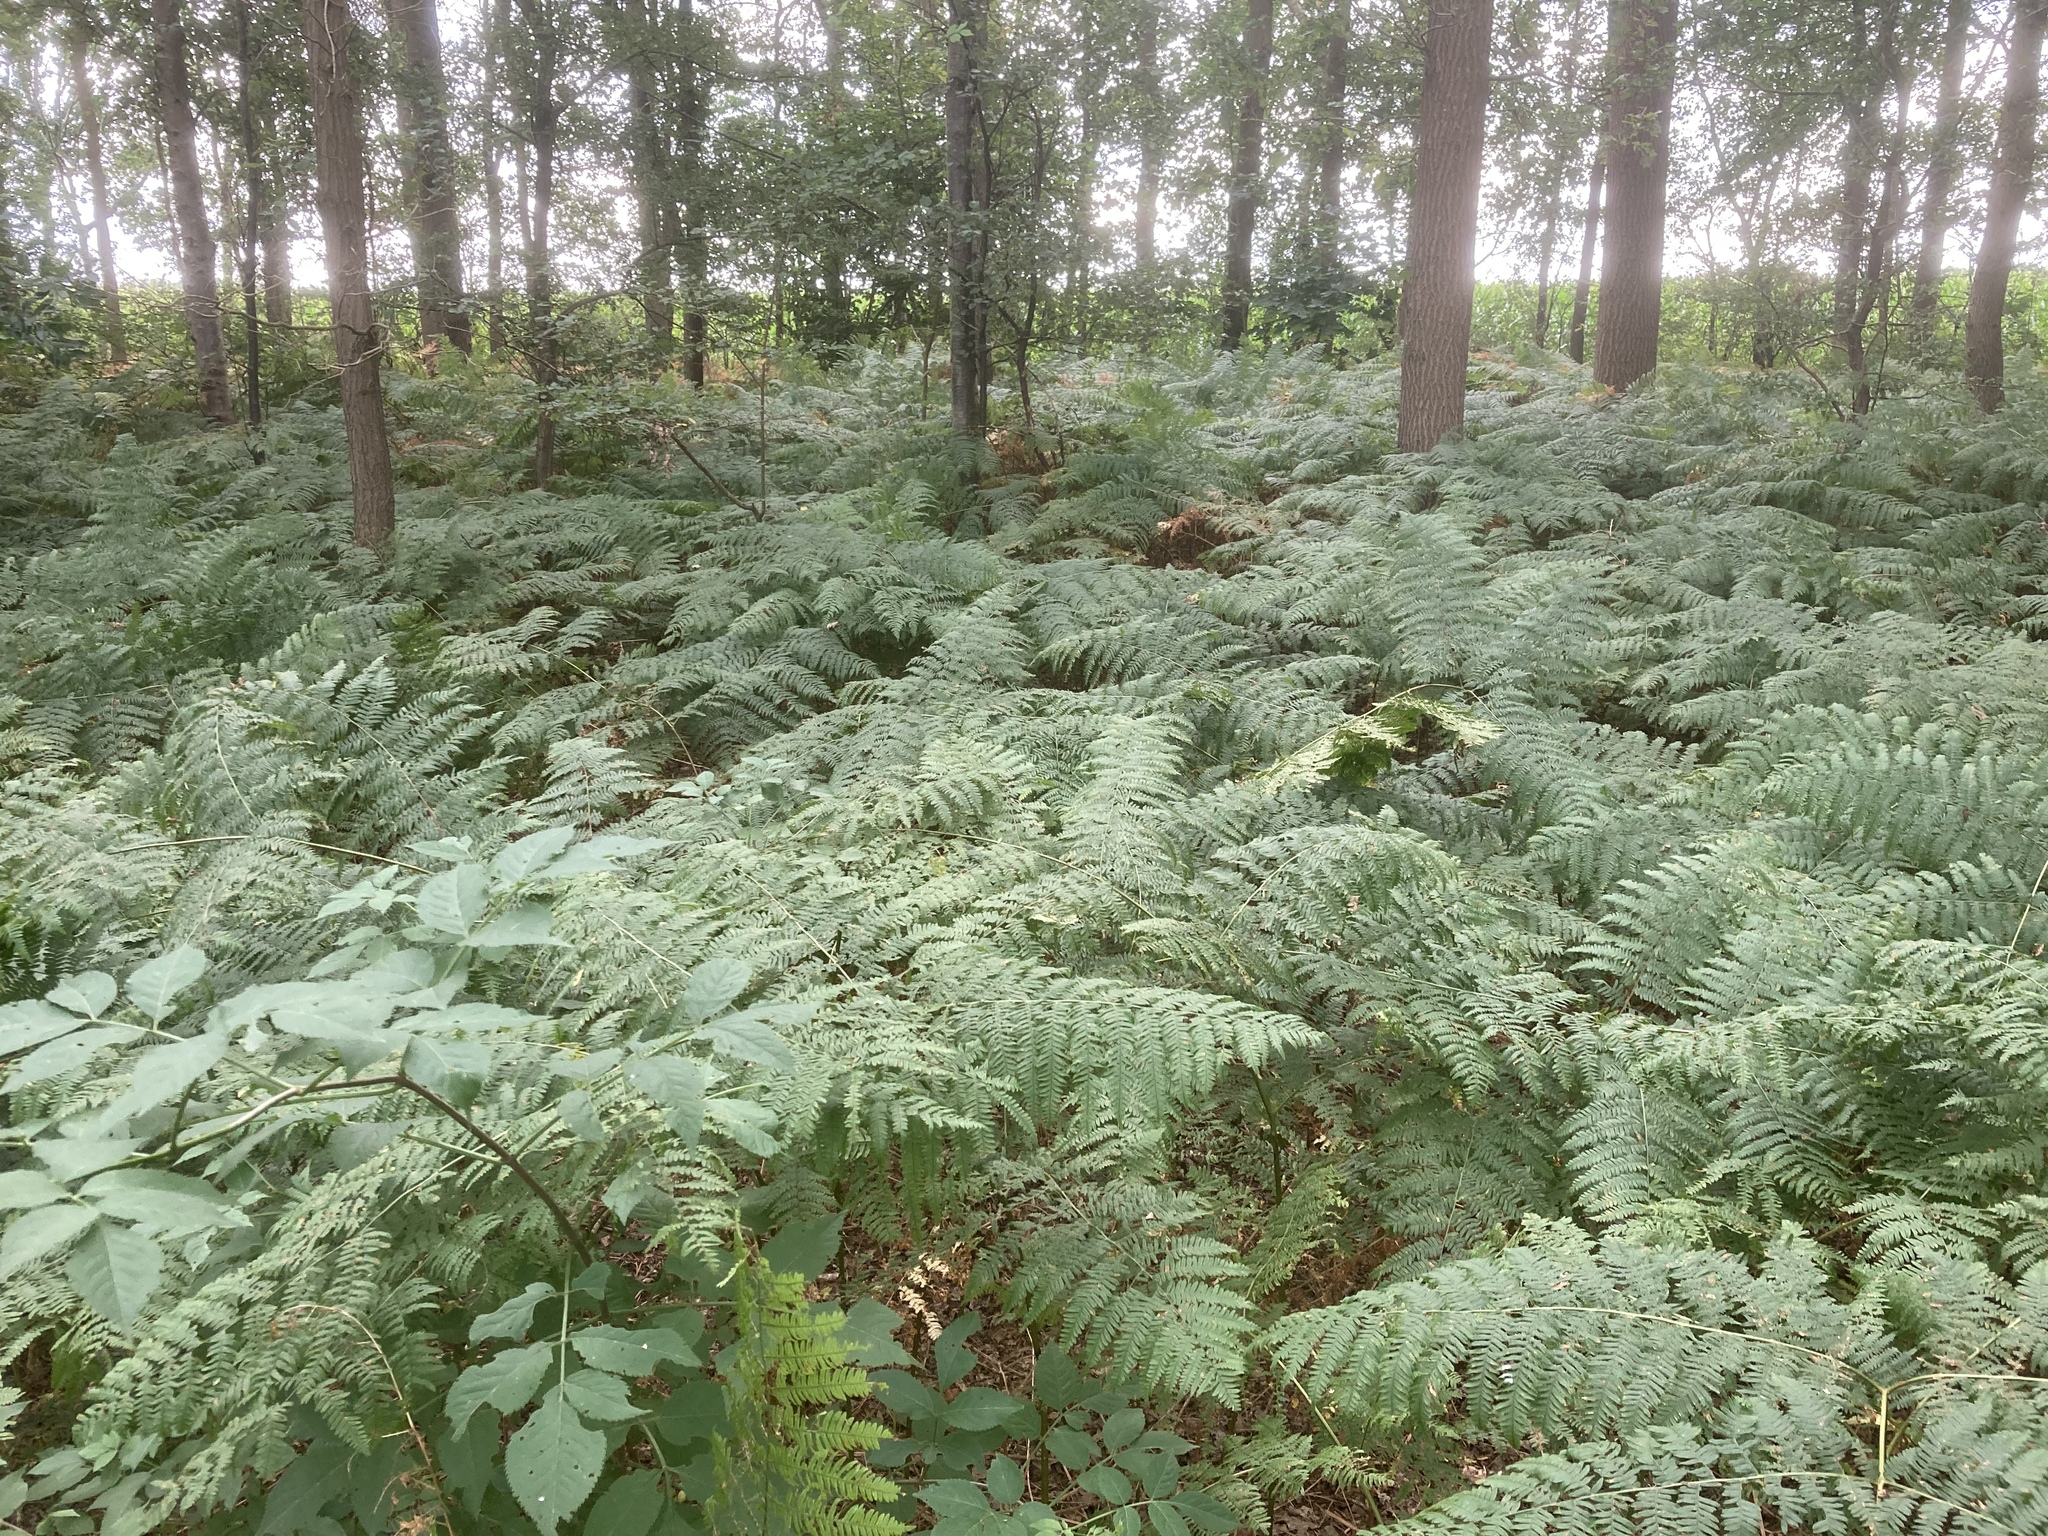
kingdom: Plantae
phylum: Tracheophyta
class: Polypodiopsida
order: Polypodiales
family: Dennstaedtiaceae
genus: Pteridium
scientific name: Pteridium aquilinum
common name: Bracken
